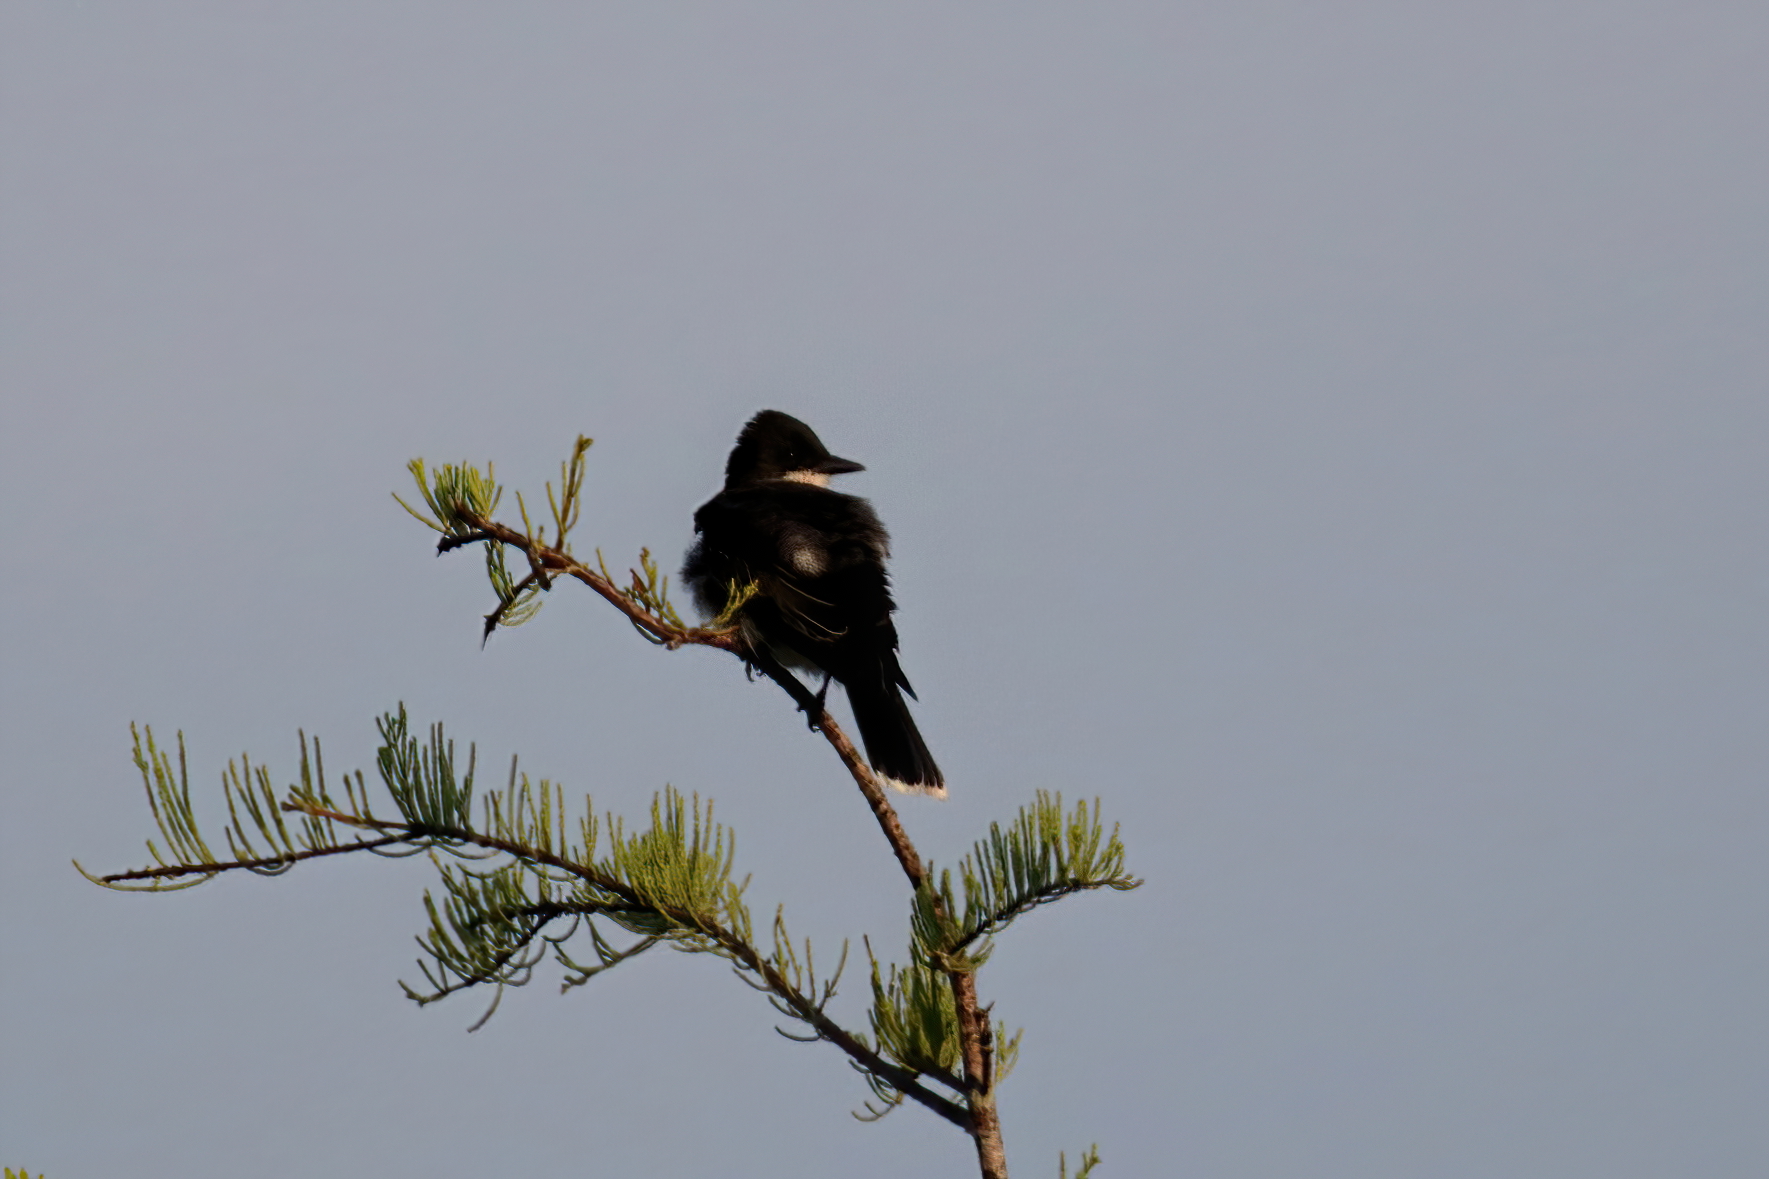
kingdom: Animalia
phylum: Chordata
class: Aves
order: Passeriformes
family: Tyrannidae
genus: Tyrannus
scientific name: Tyrannus tyrannus
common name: Eastern kingbird
